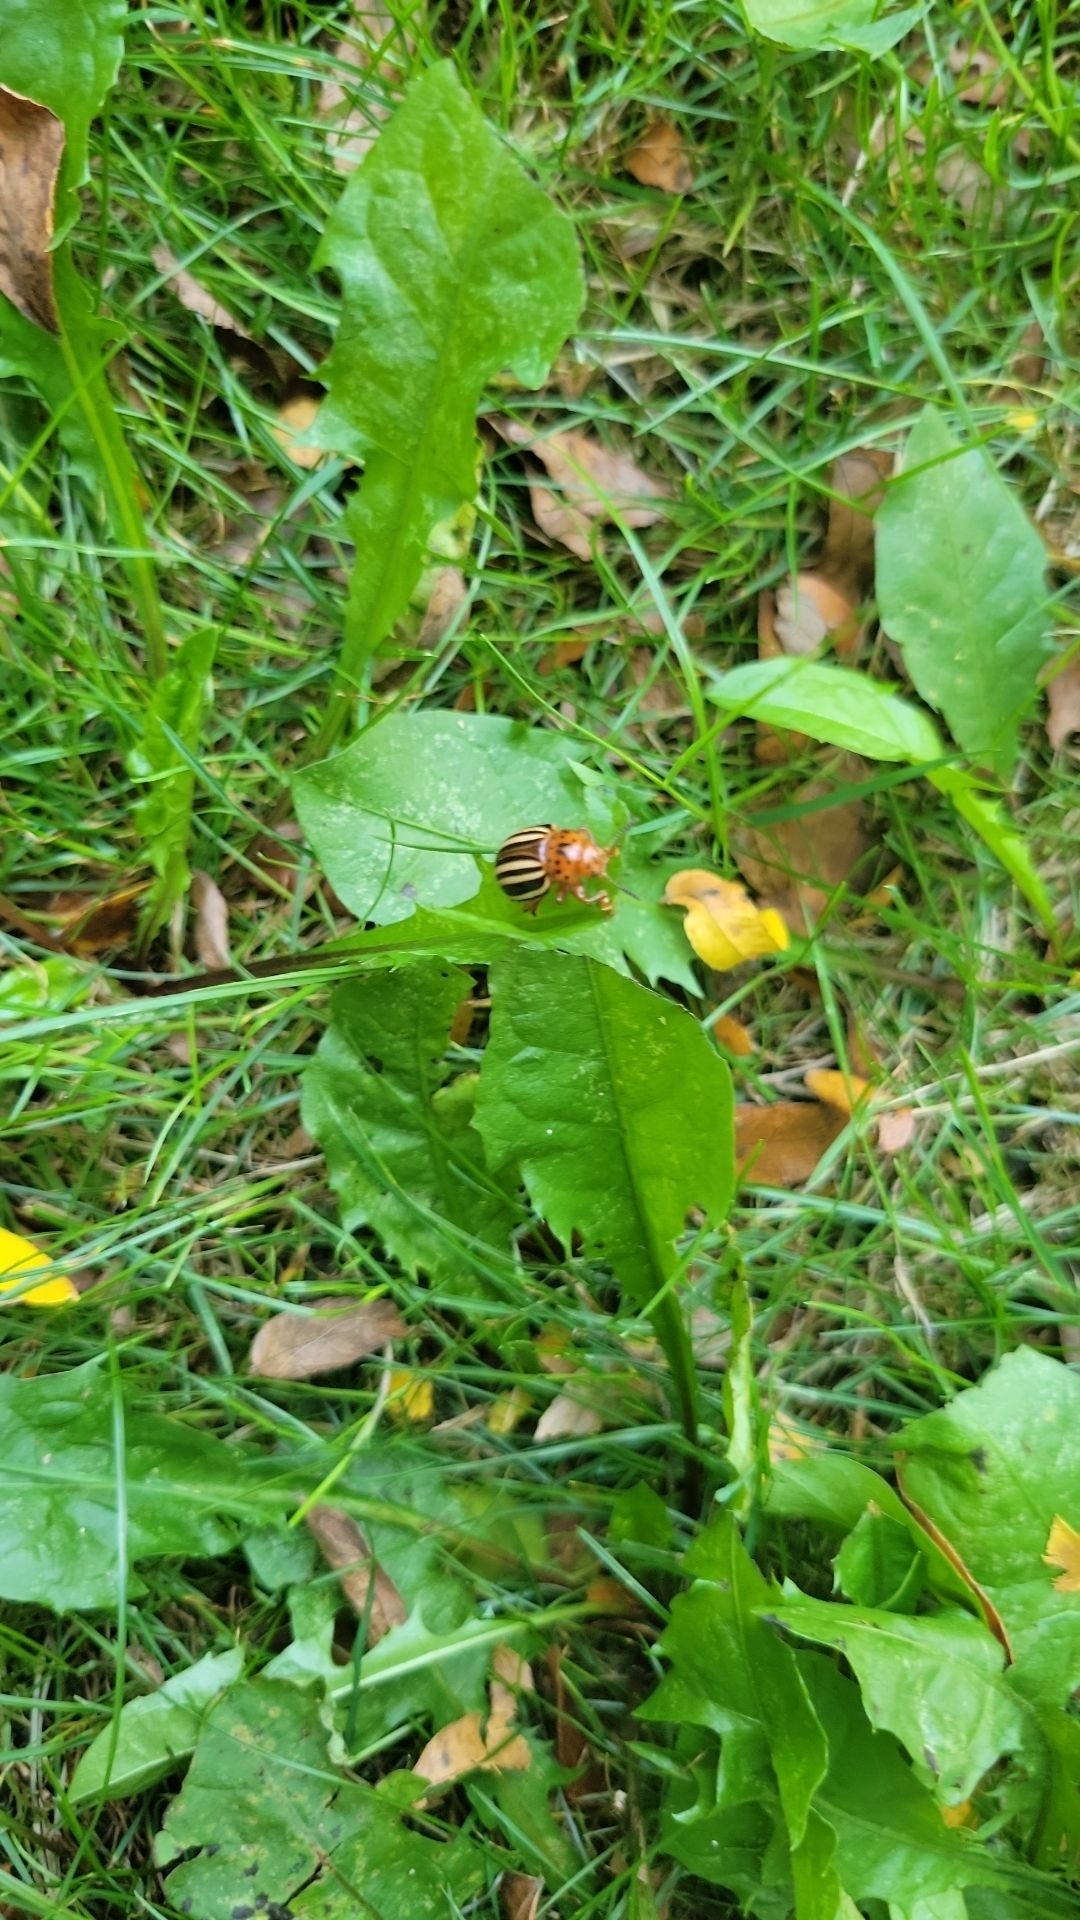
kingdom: Animalia
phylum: Arthropoda
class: Insecta
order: Coleoptera
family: Chrysomelidae
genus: Leptinotarsa
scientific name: Leptinotarsa juncta
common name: False potato beetle
